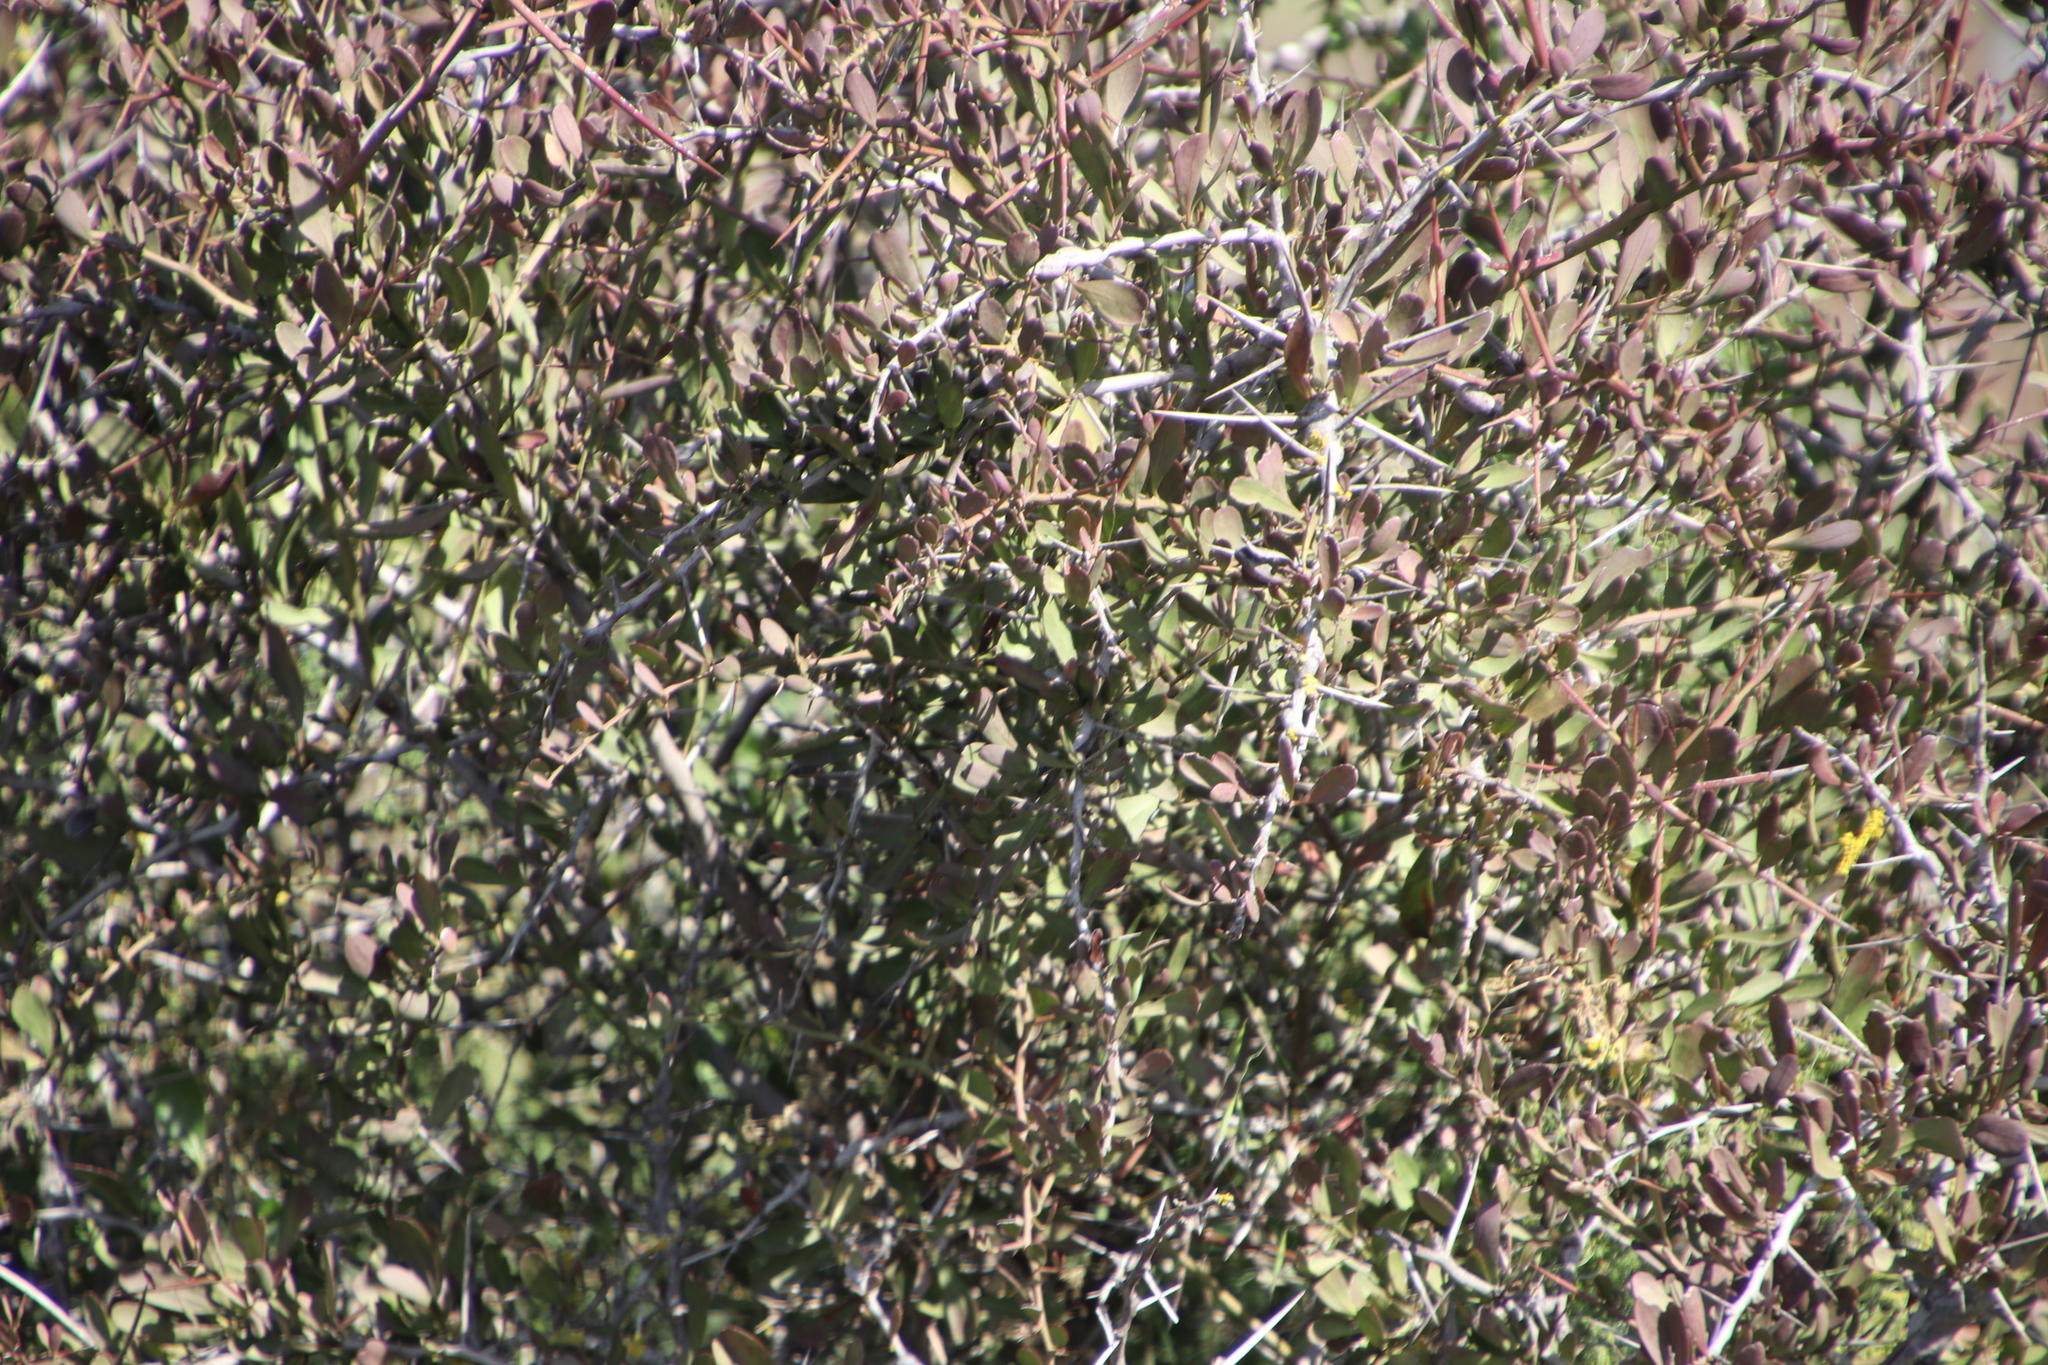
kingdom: Plantae
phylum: Tracheophyta
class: Magnoliopsida
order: Celastrales
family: Celastraceae
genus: Gymnosporia
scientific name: Gymnosporia buxifolia
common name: Common spike-thorn
